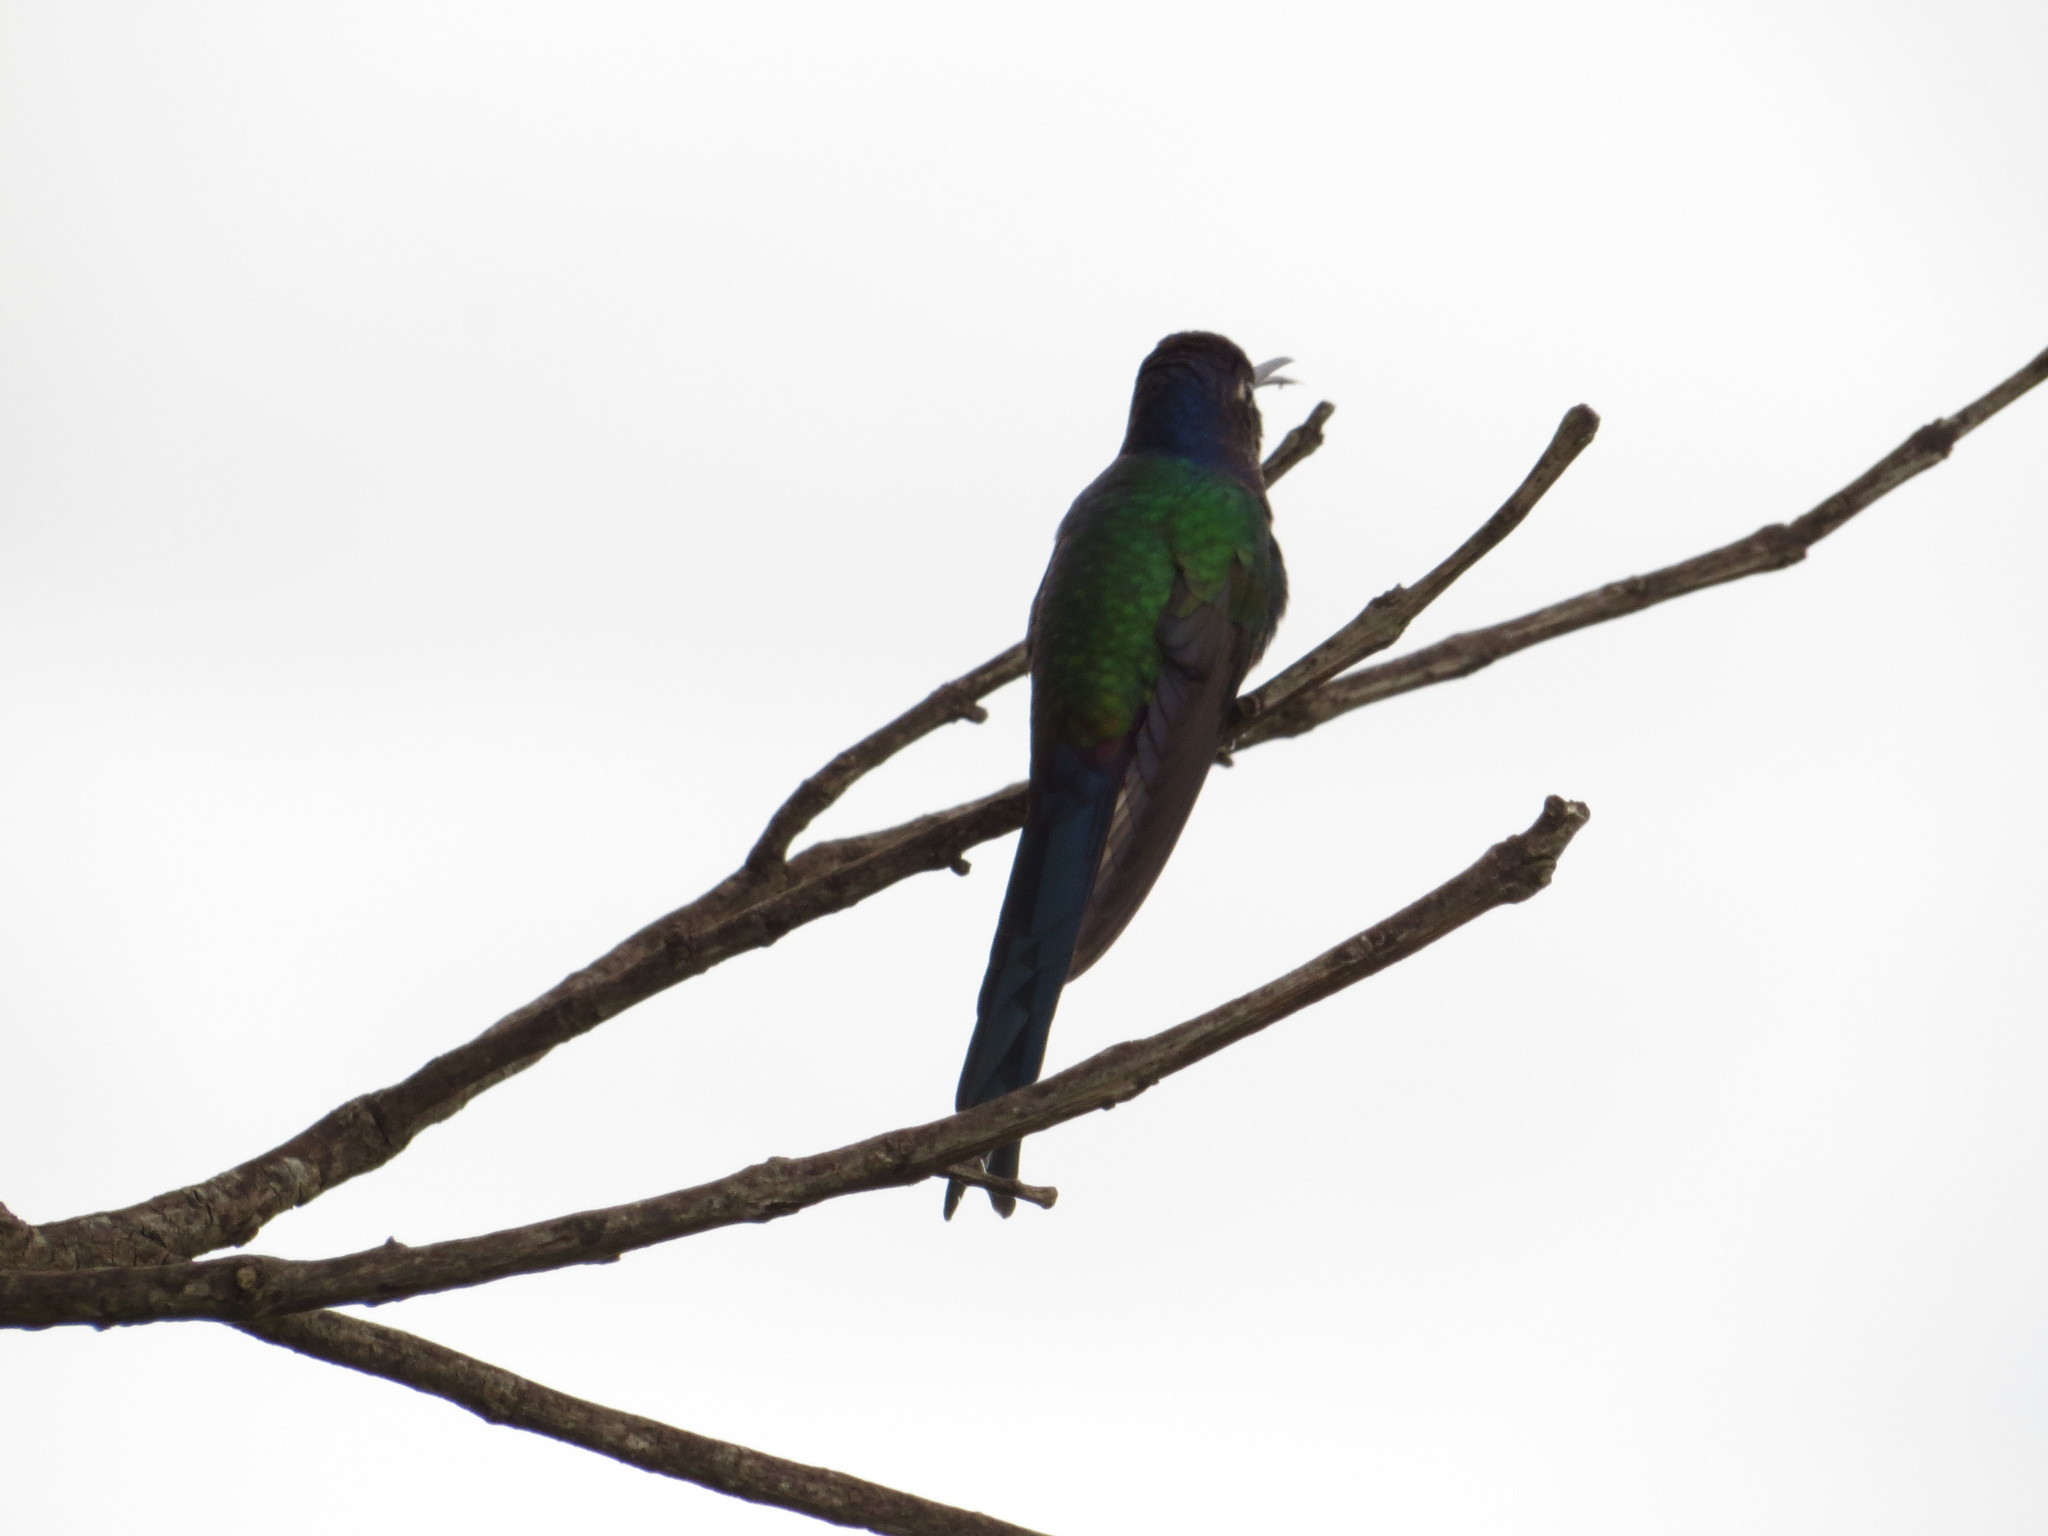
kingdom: Animalia
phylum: Chordata
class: Aves
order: Apodiformes
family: Trochilidae
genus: Eupetomena
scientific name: Eupetomena macroura
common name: Swallow-tailed hummingbird
